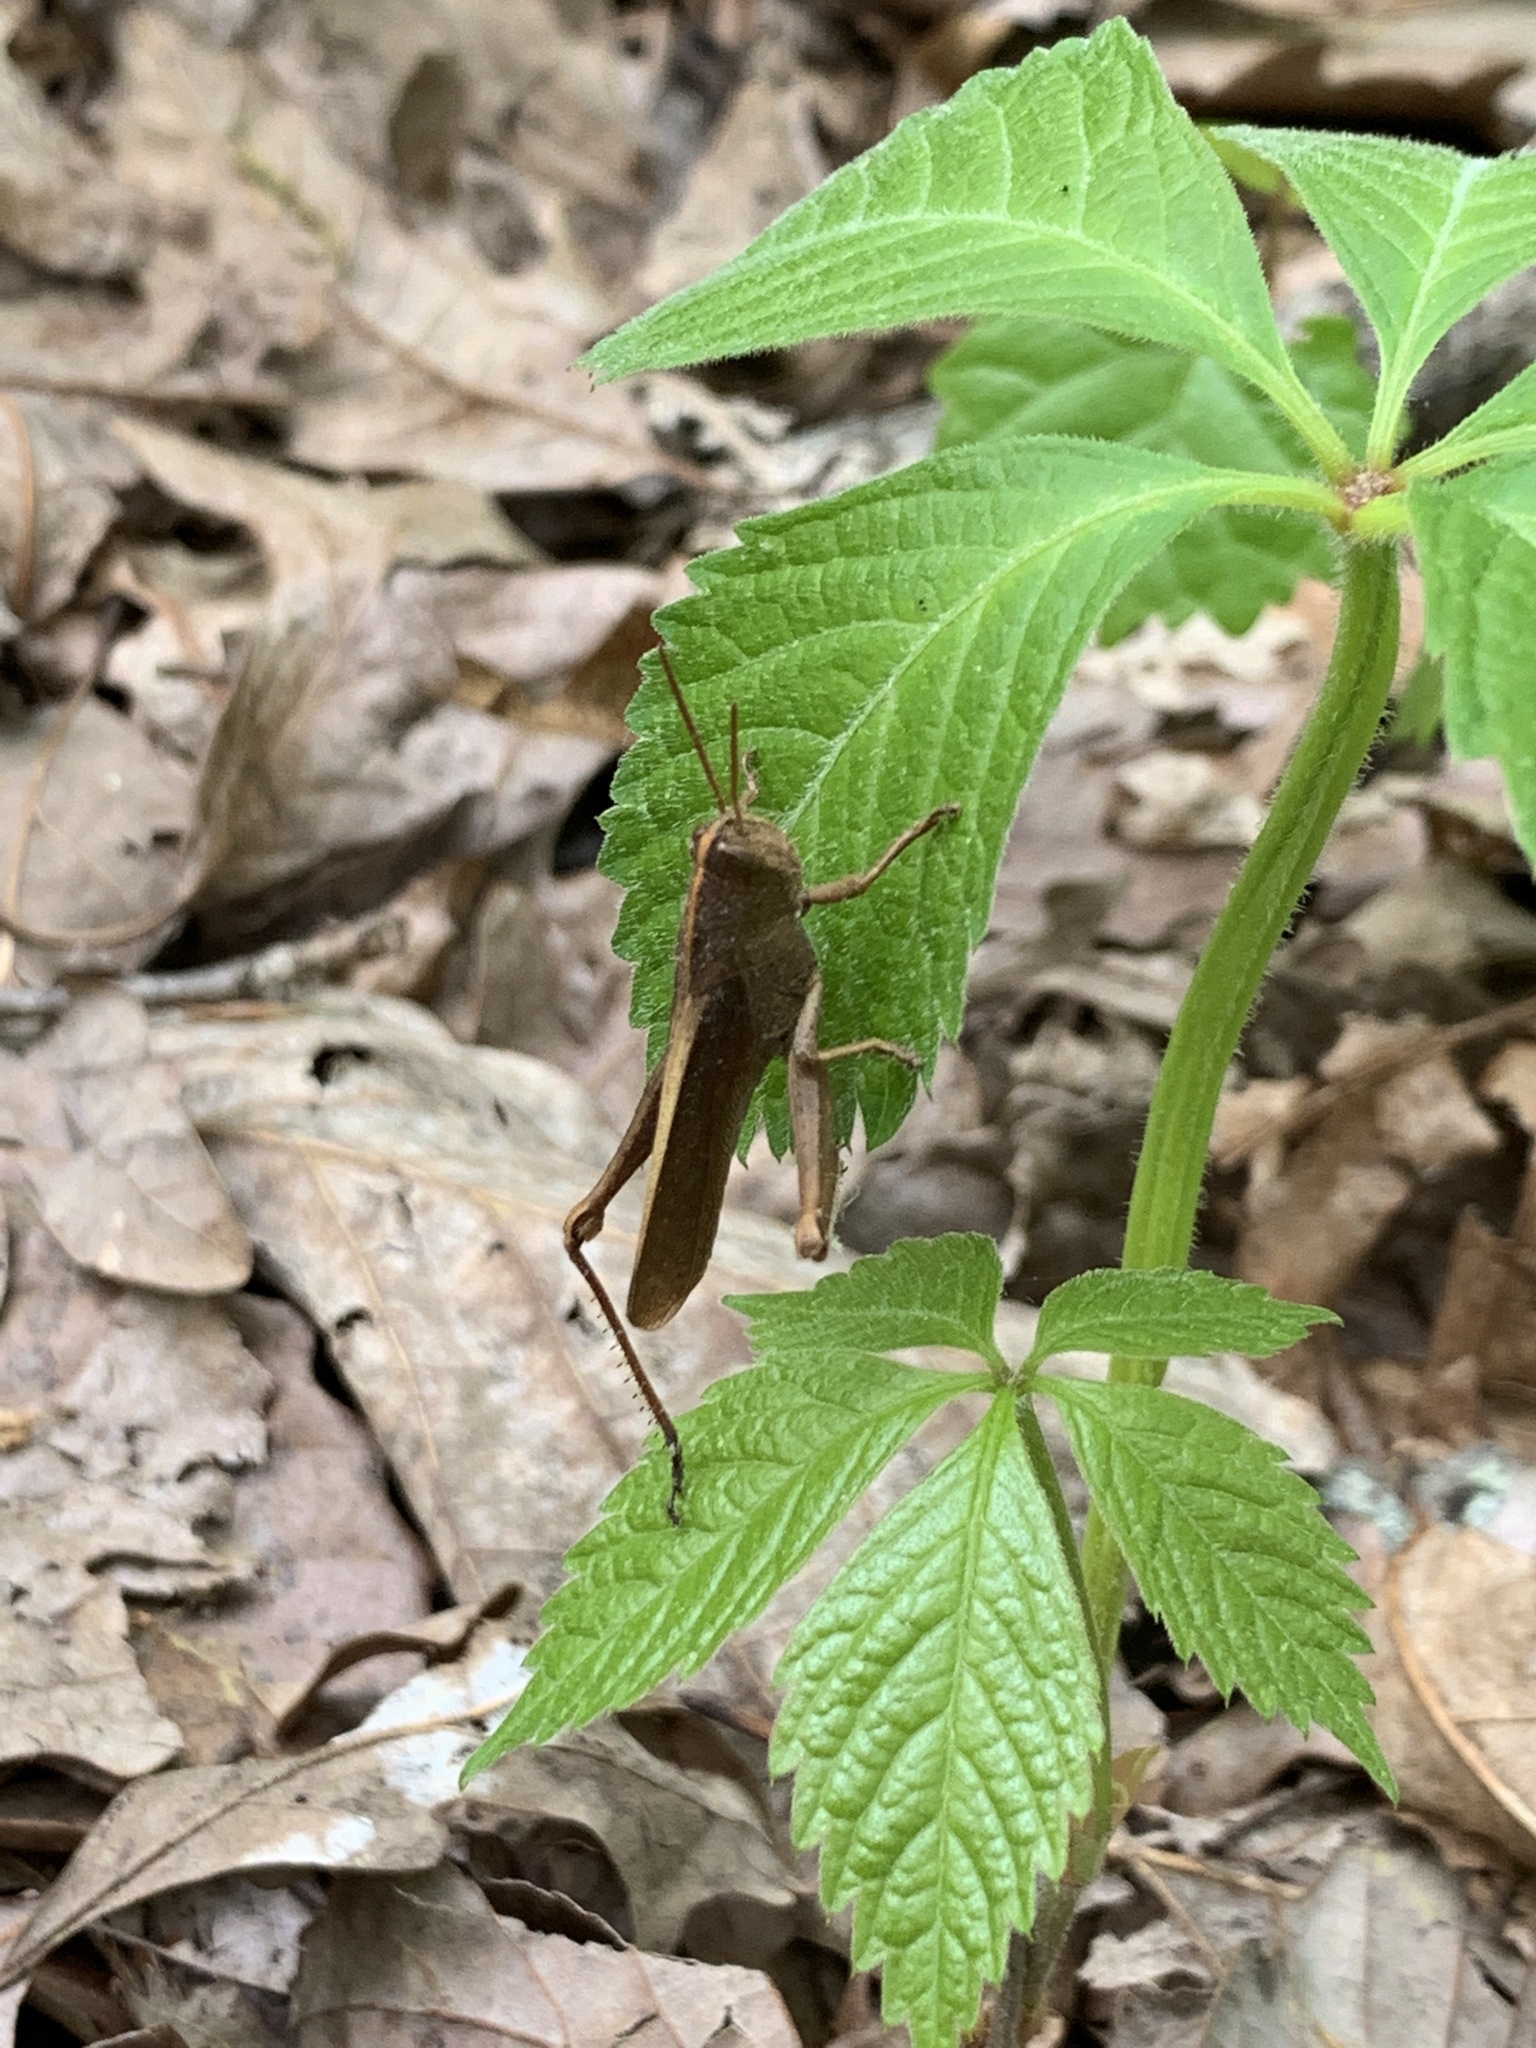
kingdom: Animalia
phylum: Arthropoda
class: Insecta
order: Orthoptera
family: Acrididae
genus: Schistocerca
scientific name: Schistocerca damnifica
